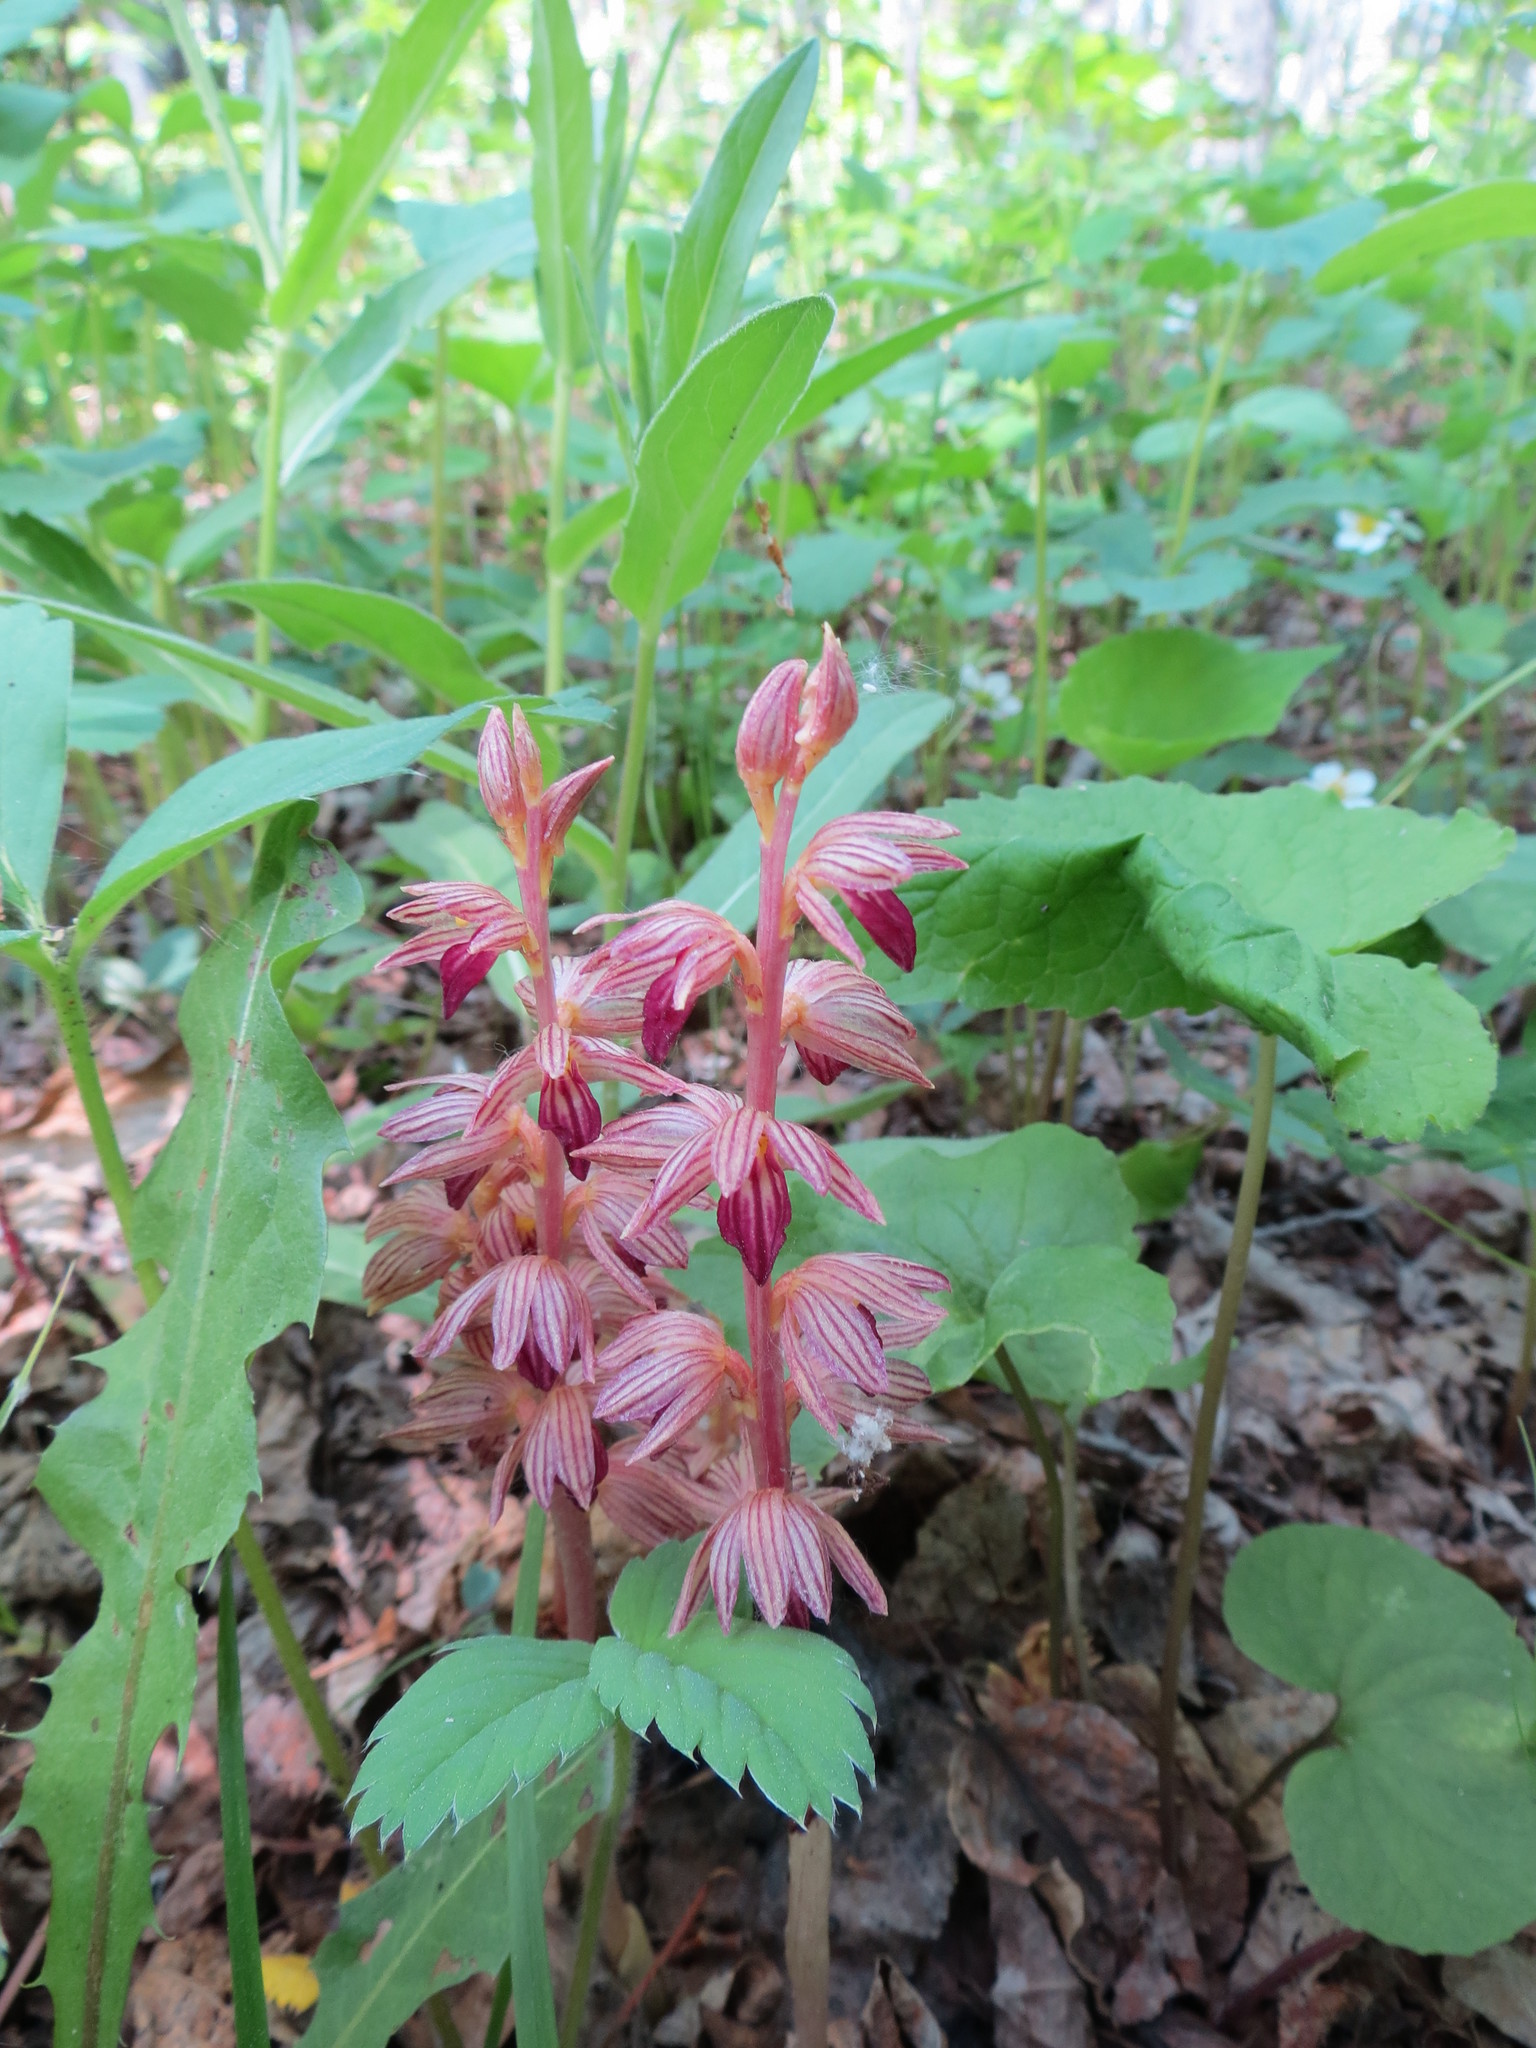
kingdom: Plantae
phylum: Tracheophyta
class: Liliopsida
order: Asparagales
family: Orchidaceae
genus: Corallorhiza
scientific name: Corallorhiza striata
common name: Hooded coralroot
